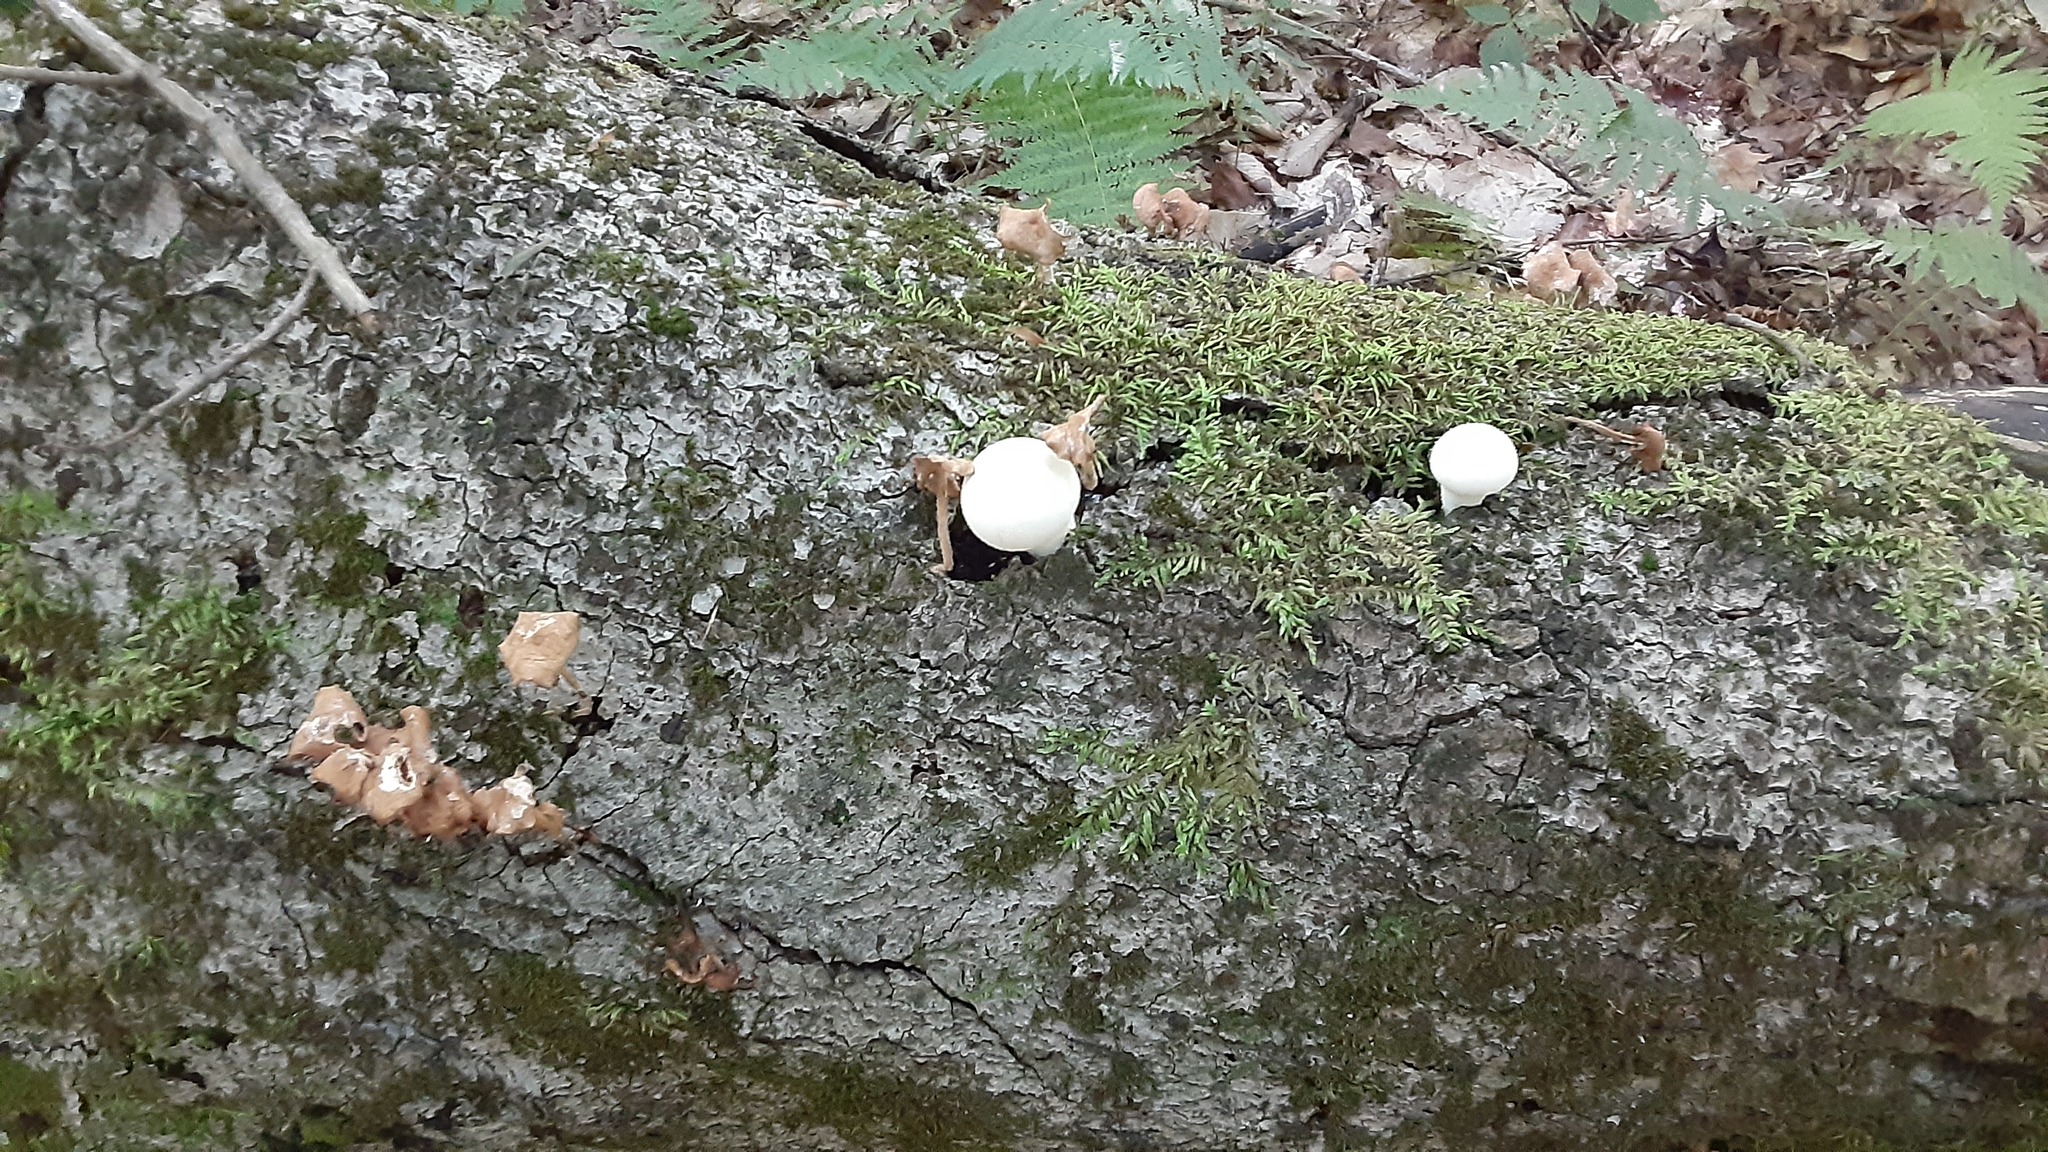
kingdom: Fungi
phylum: Basidiomycota
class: Agaricomycetes
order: Agaricales
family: Lycoperdaceae
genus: Lycoperdon
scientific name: Lycoperdon perlatum
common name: Common puffball
